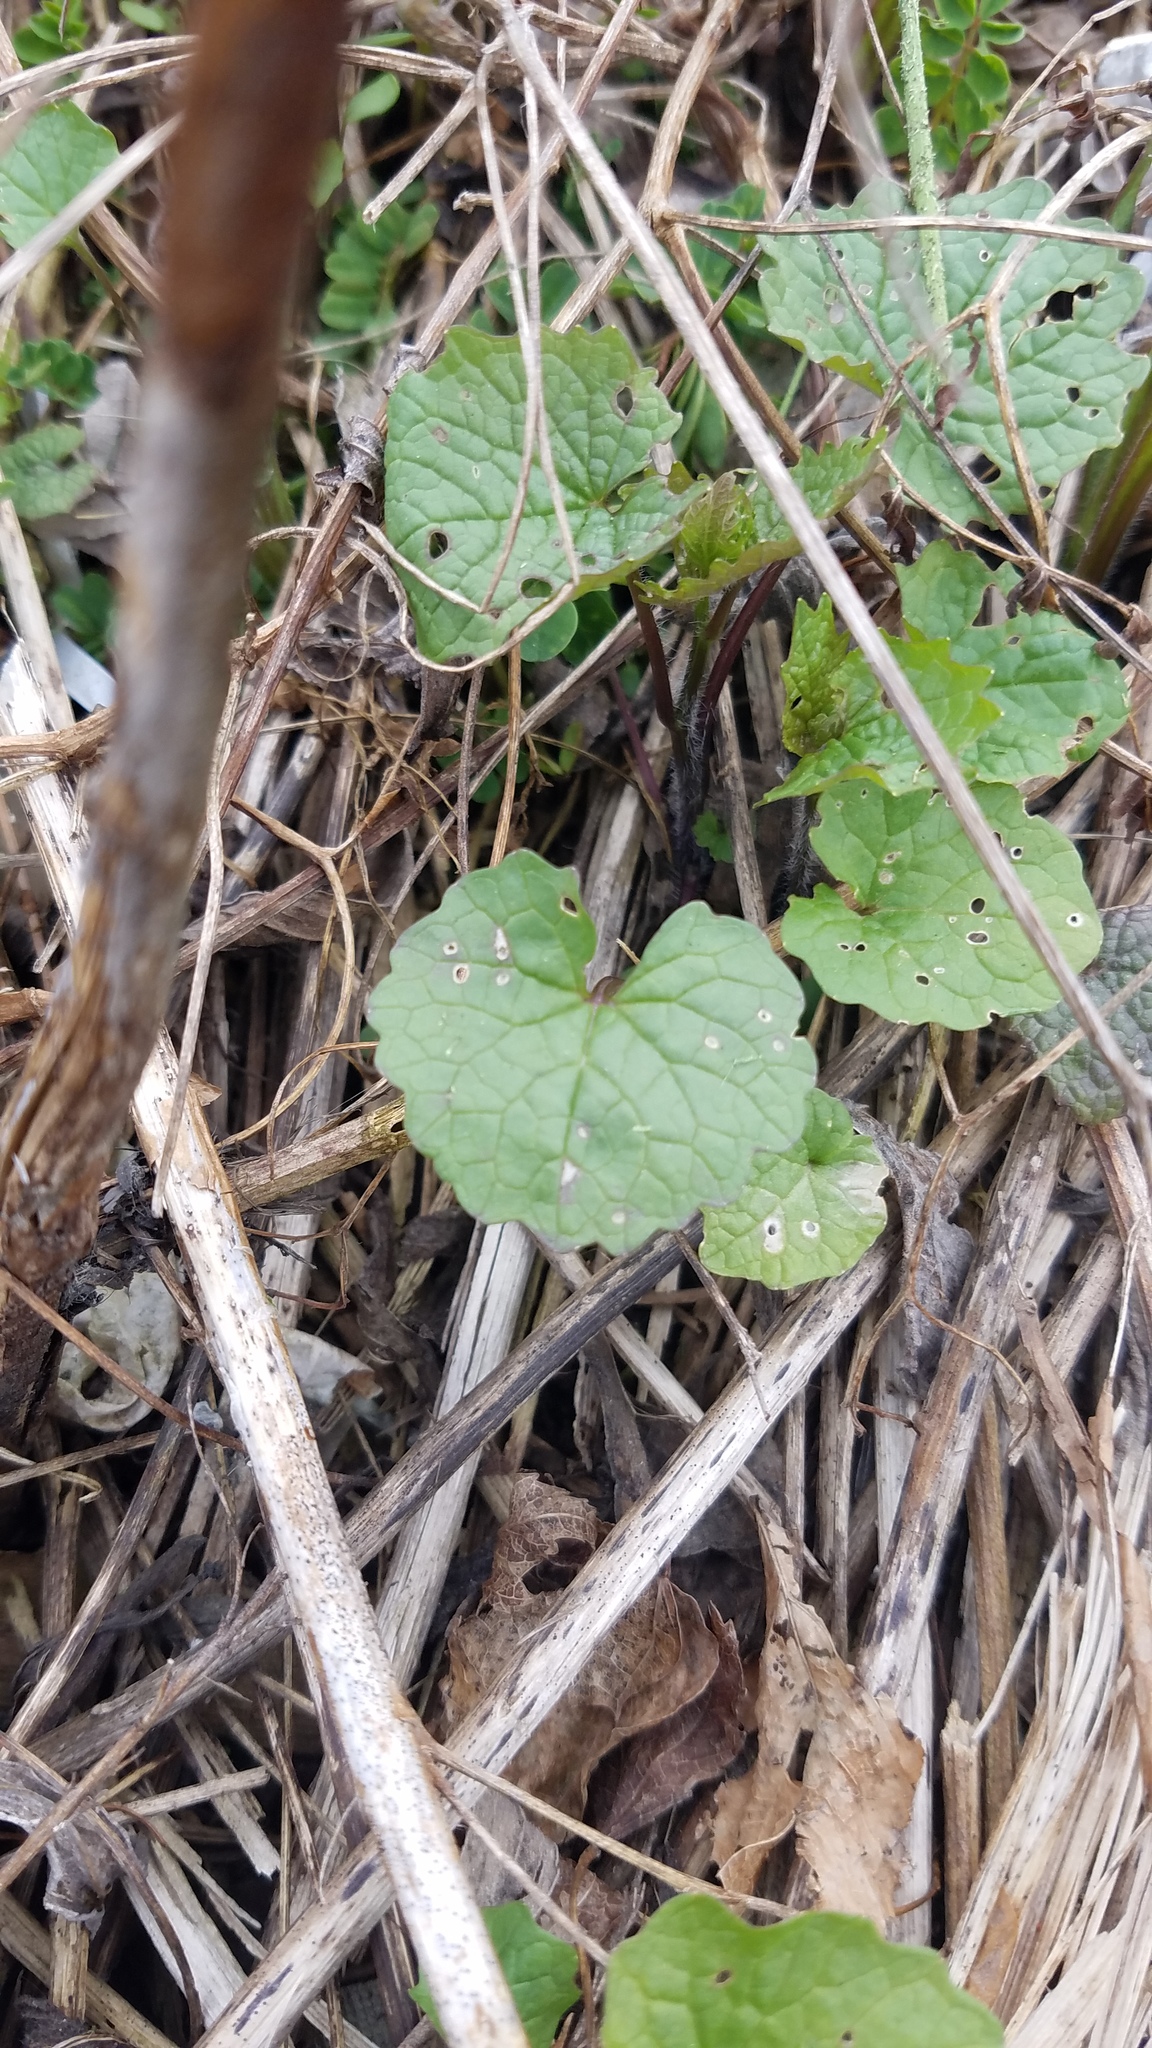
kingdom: Plantae
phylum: Tracheophyta
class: Magnoliopsida
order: Brassicales
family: Brassicaceae
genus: Alliaria
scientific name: Alliaria petiolata
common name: Garlic mustard
